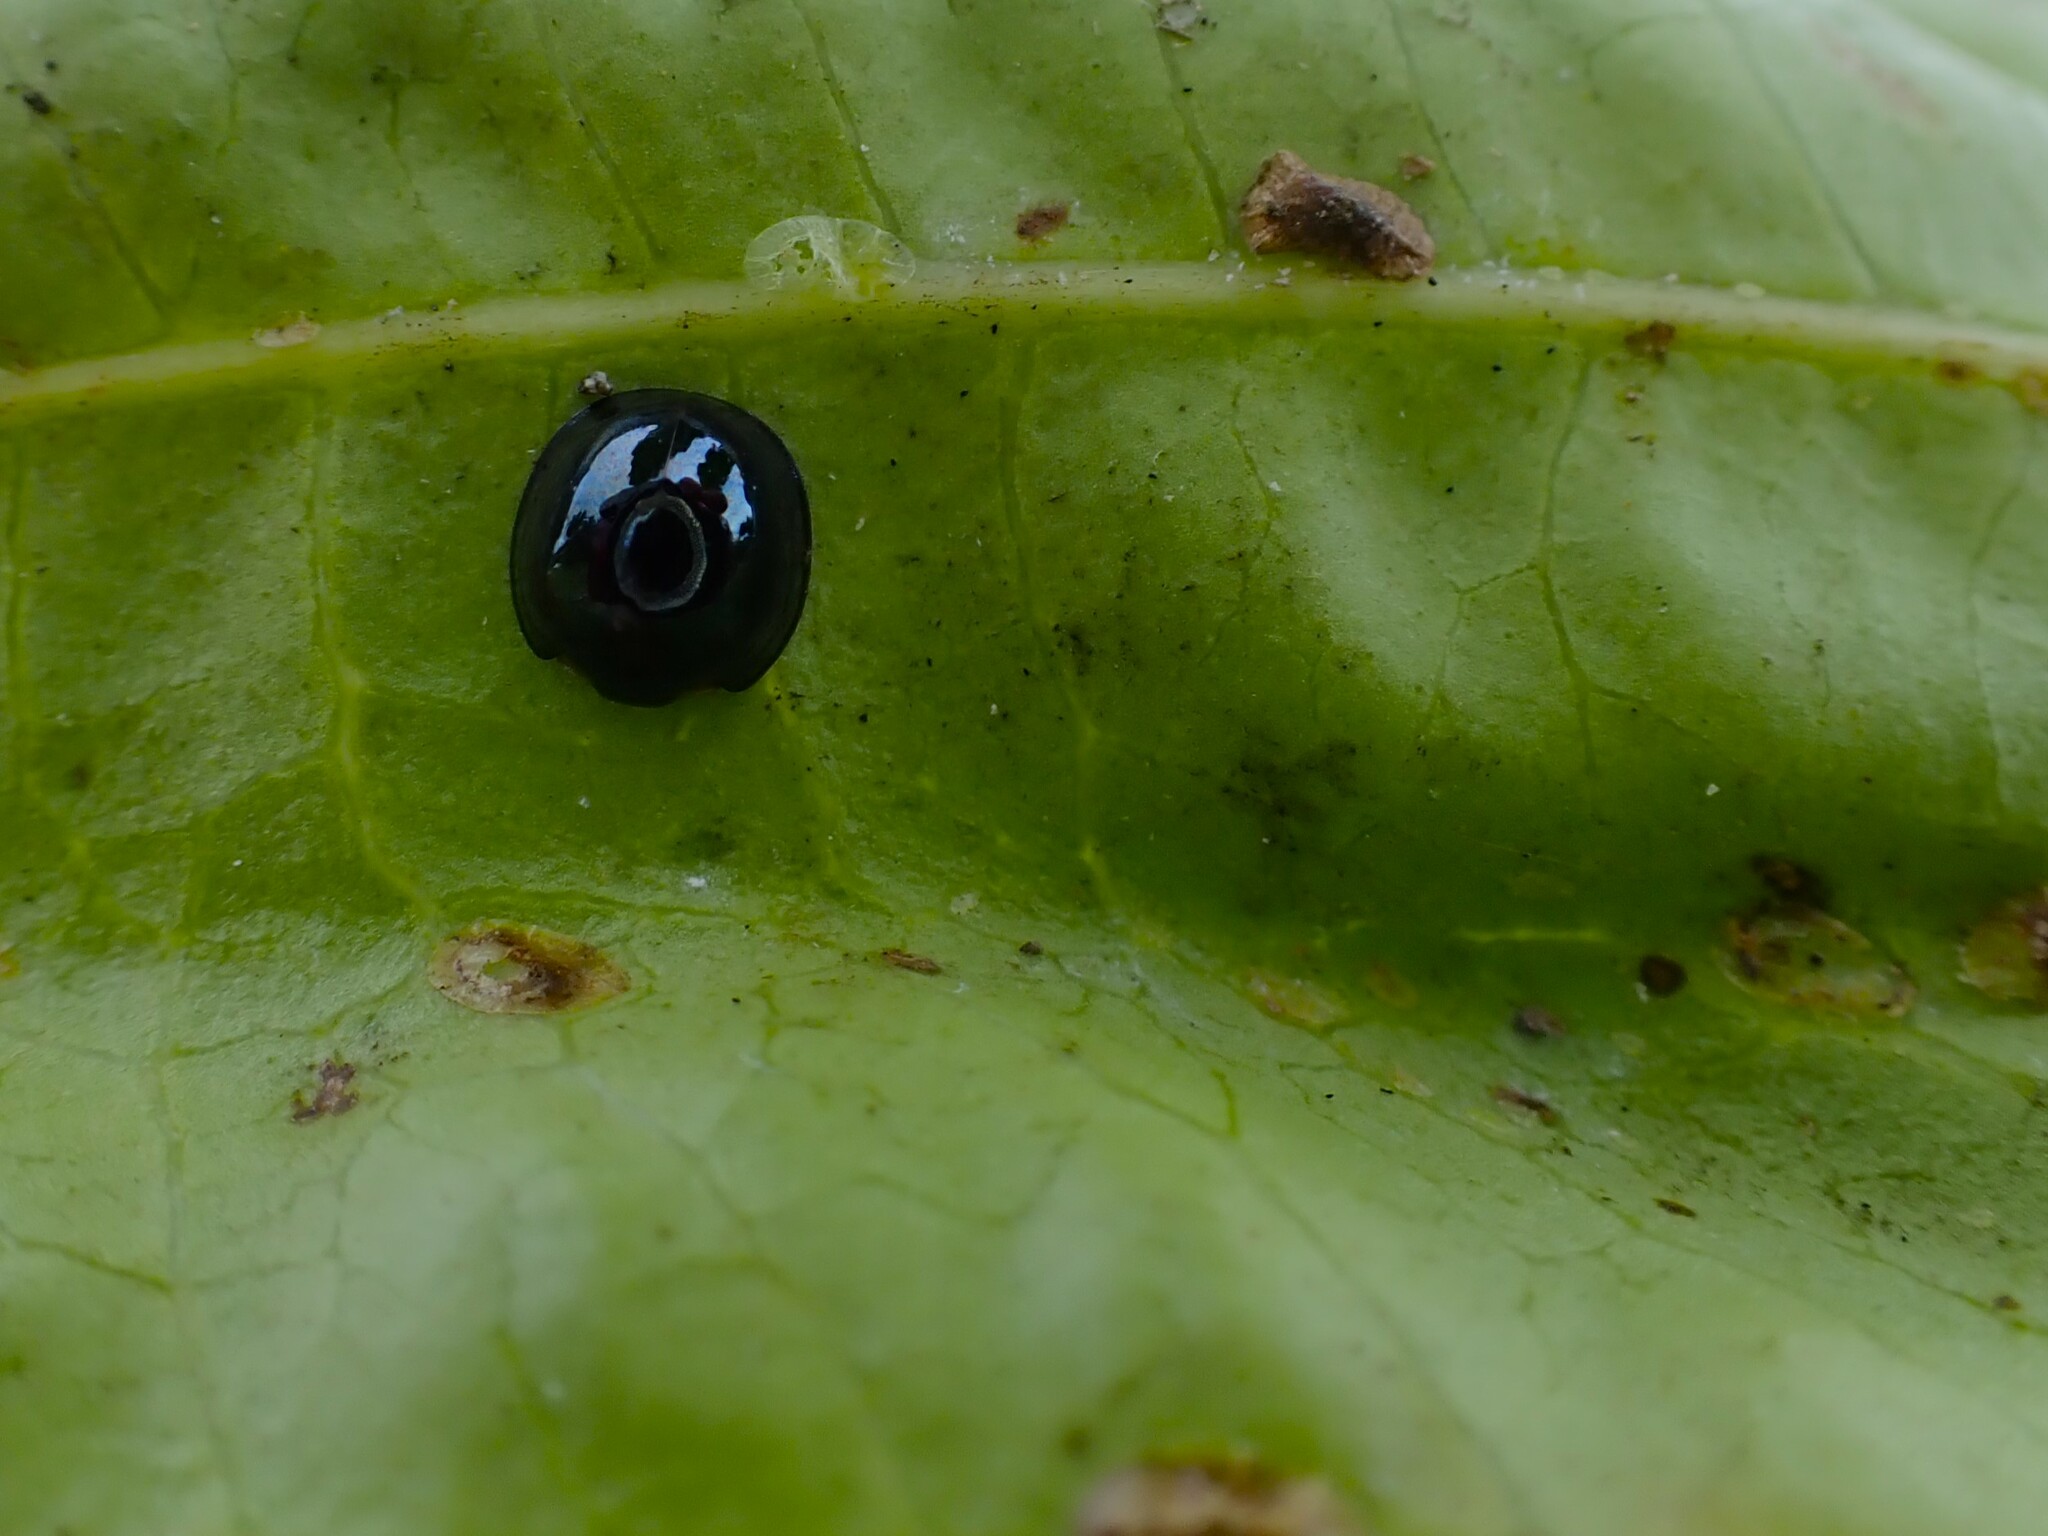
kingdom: Animalia
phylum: Arthropoda
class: Insecta
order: Coleoptera
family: Coccinellidae
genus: Chilocorus
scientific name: Chilocorus nigritus
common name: Ladybird beetle
